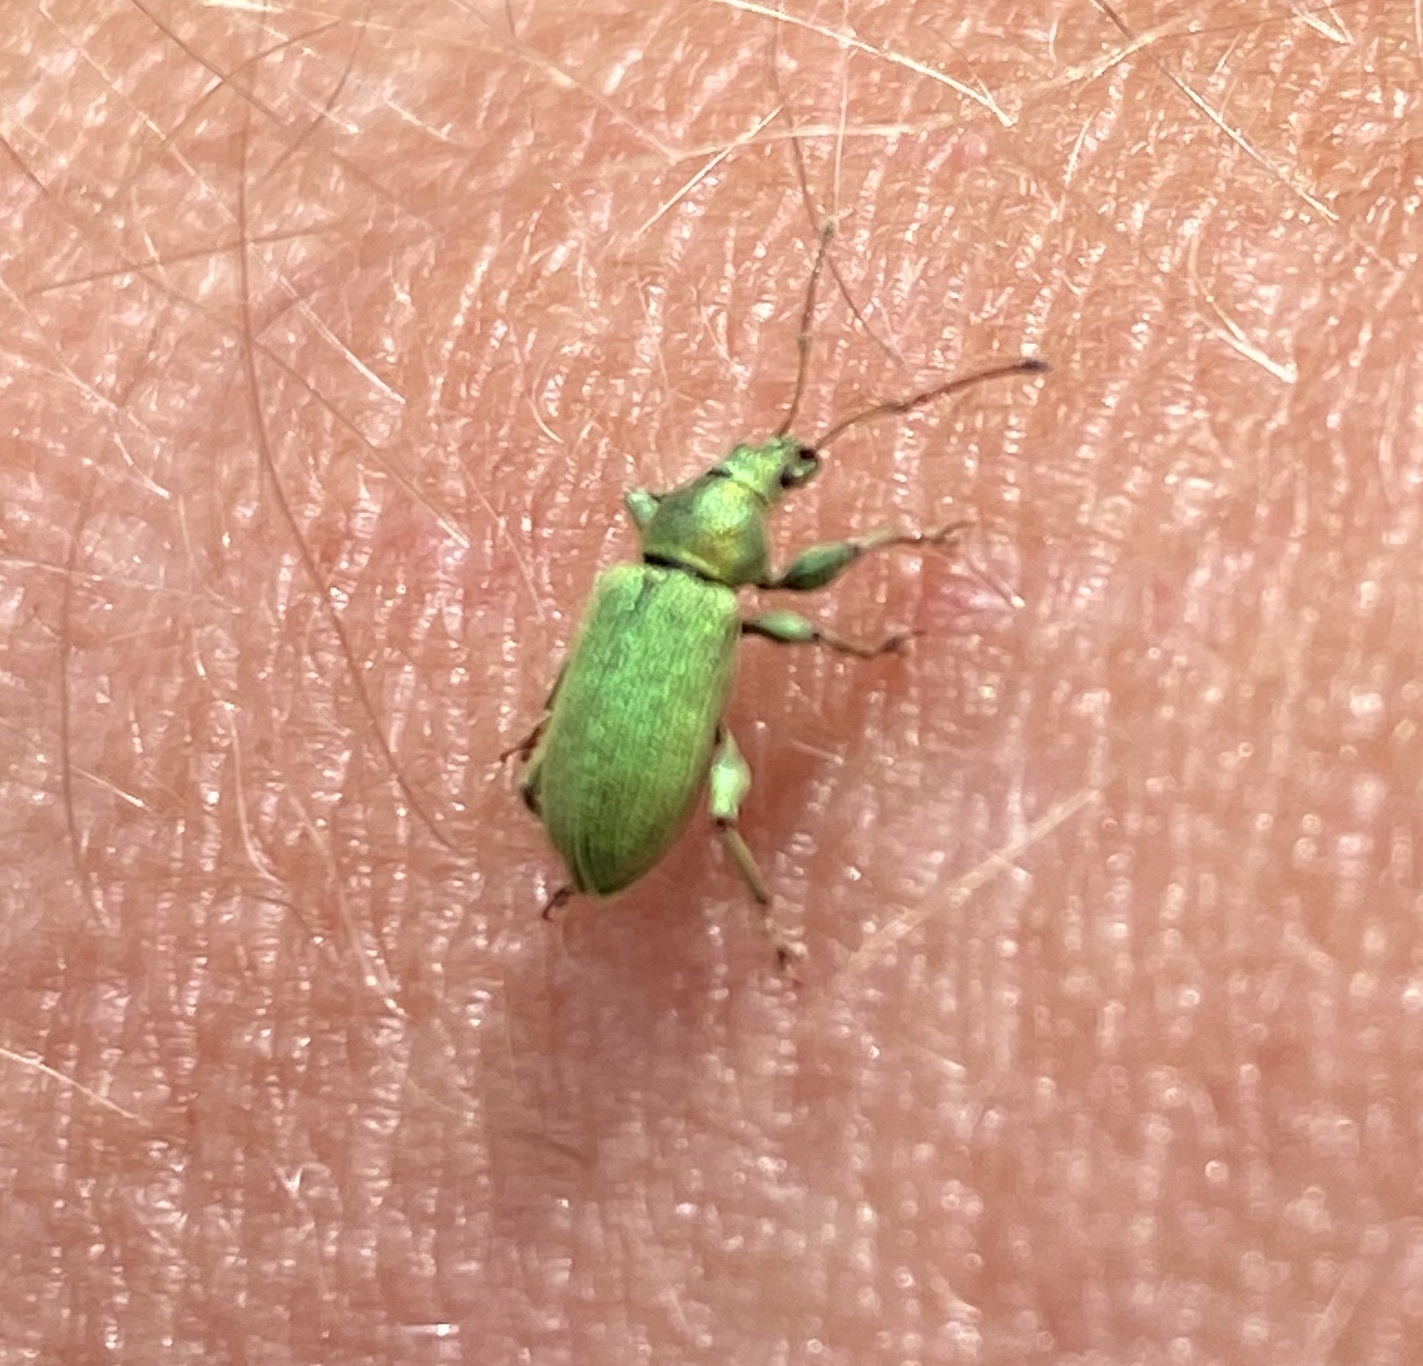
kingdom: Animalia
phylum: Arthropoda
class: Insecta
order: Coleoptera
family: Curculionidae
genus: Phyllobius
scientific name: Phyllobius maculicornis
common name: Green leaf weevil
